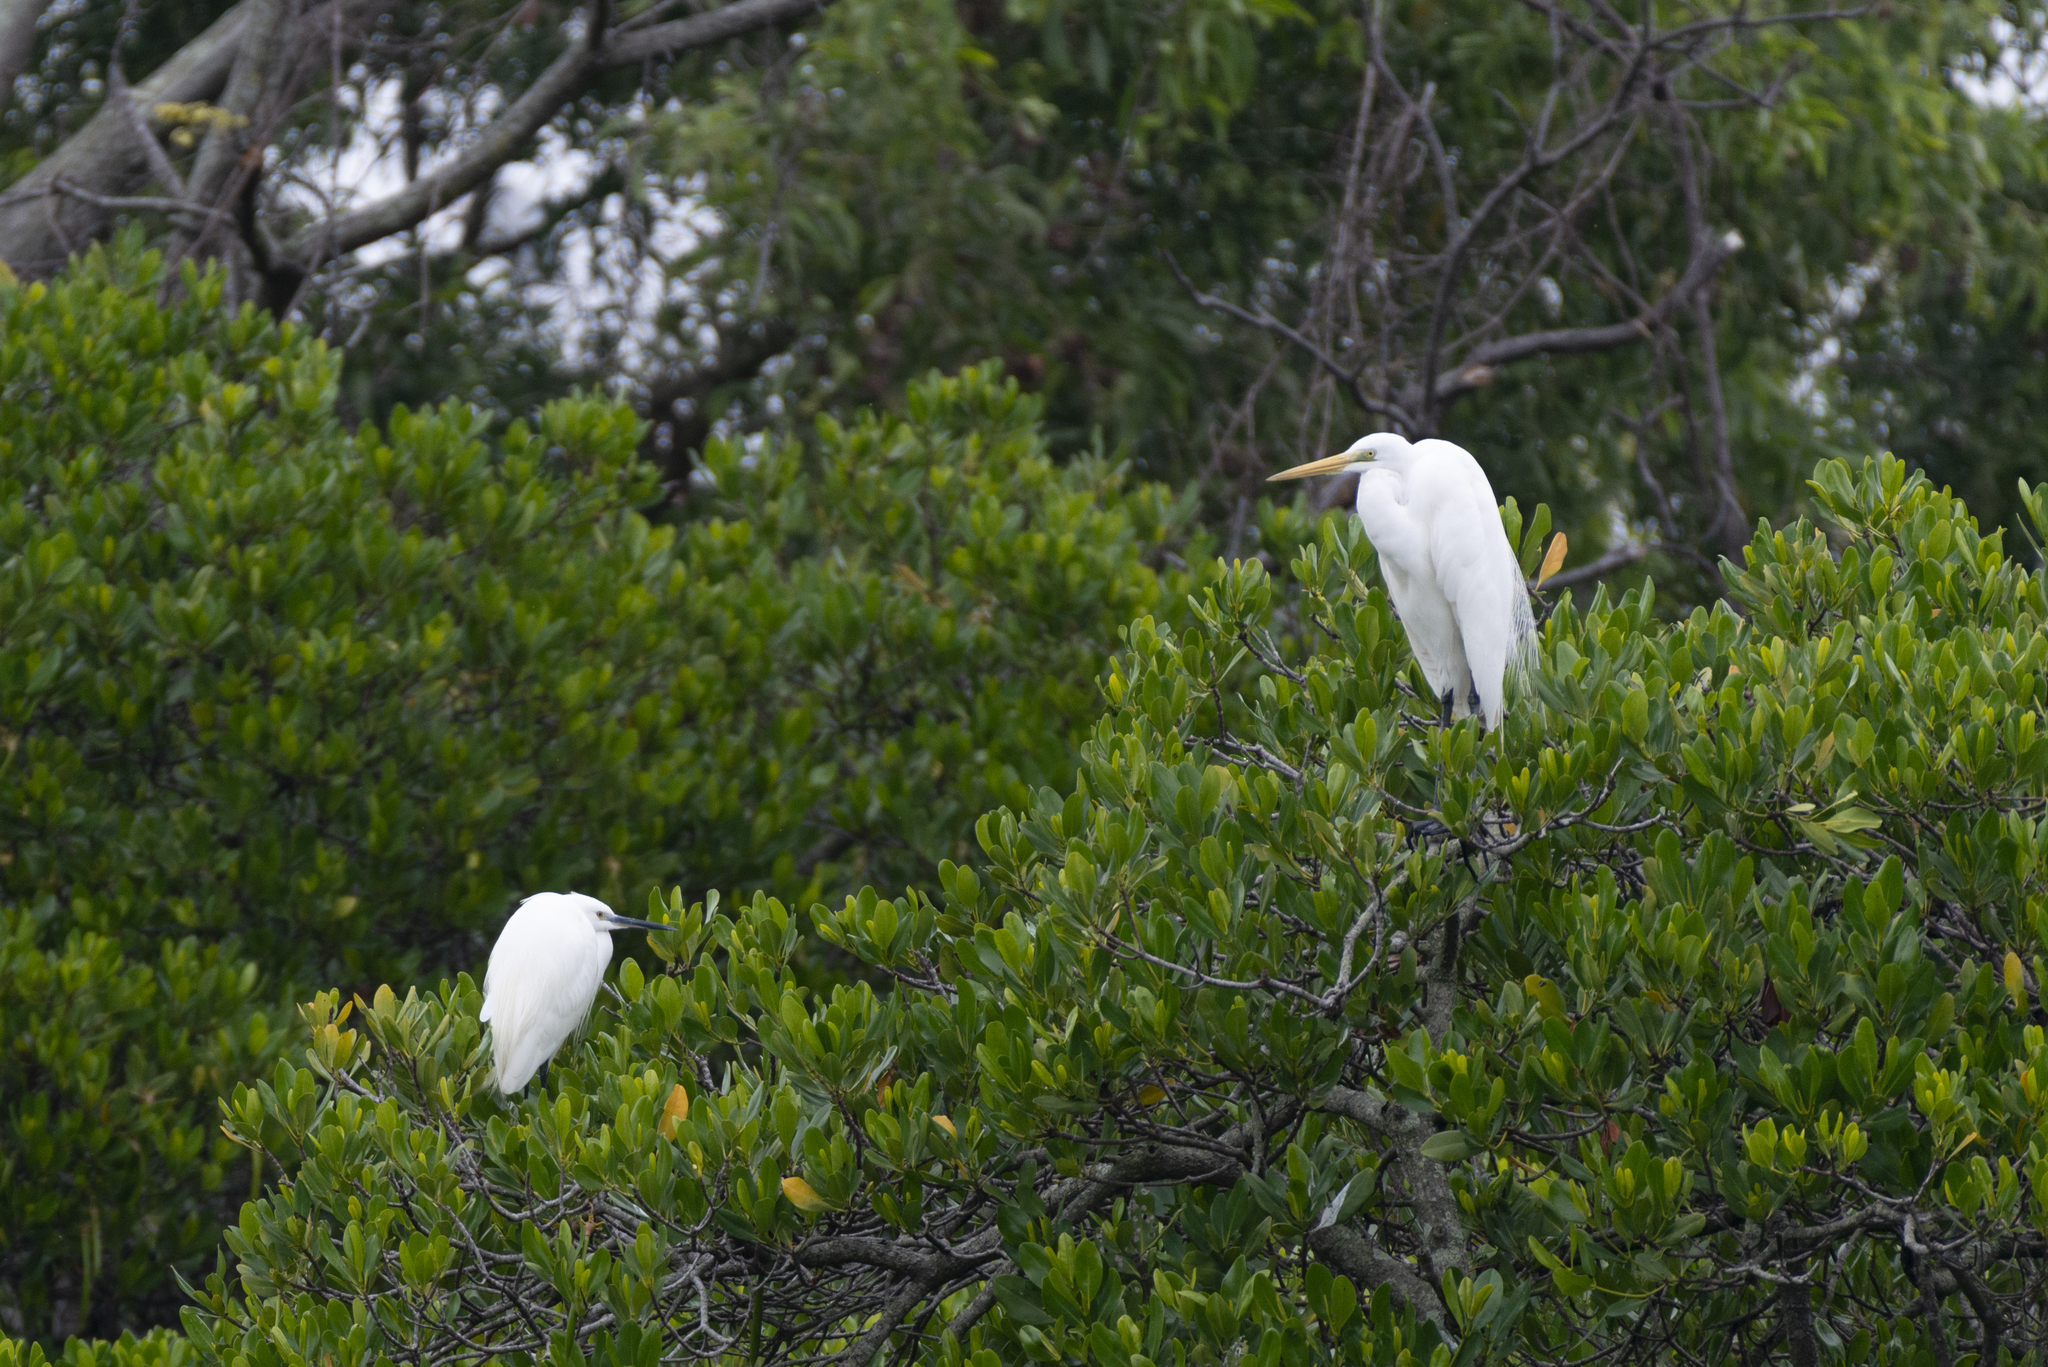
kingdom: Animalia
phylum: Chordata
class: Aves
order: Pelecaniformes
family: Ardeidae
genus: Egretta
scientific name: Egretta garzetta
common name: Little egret
